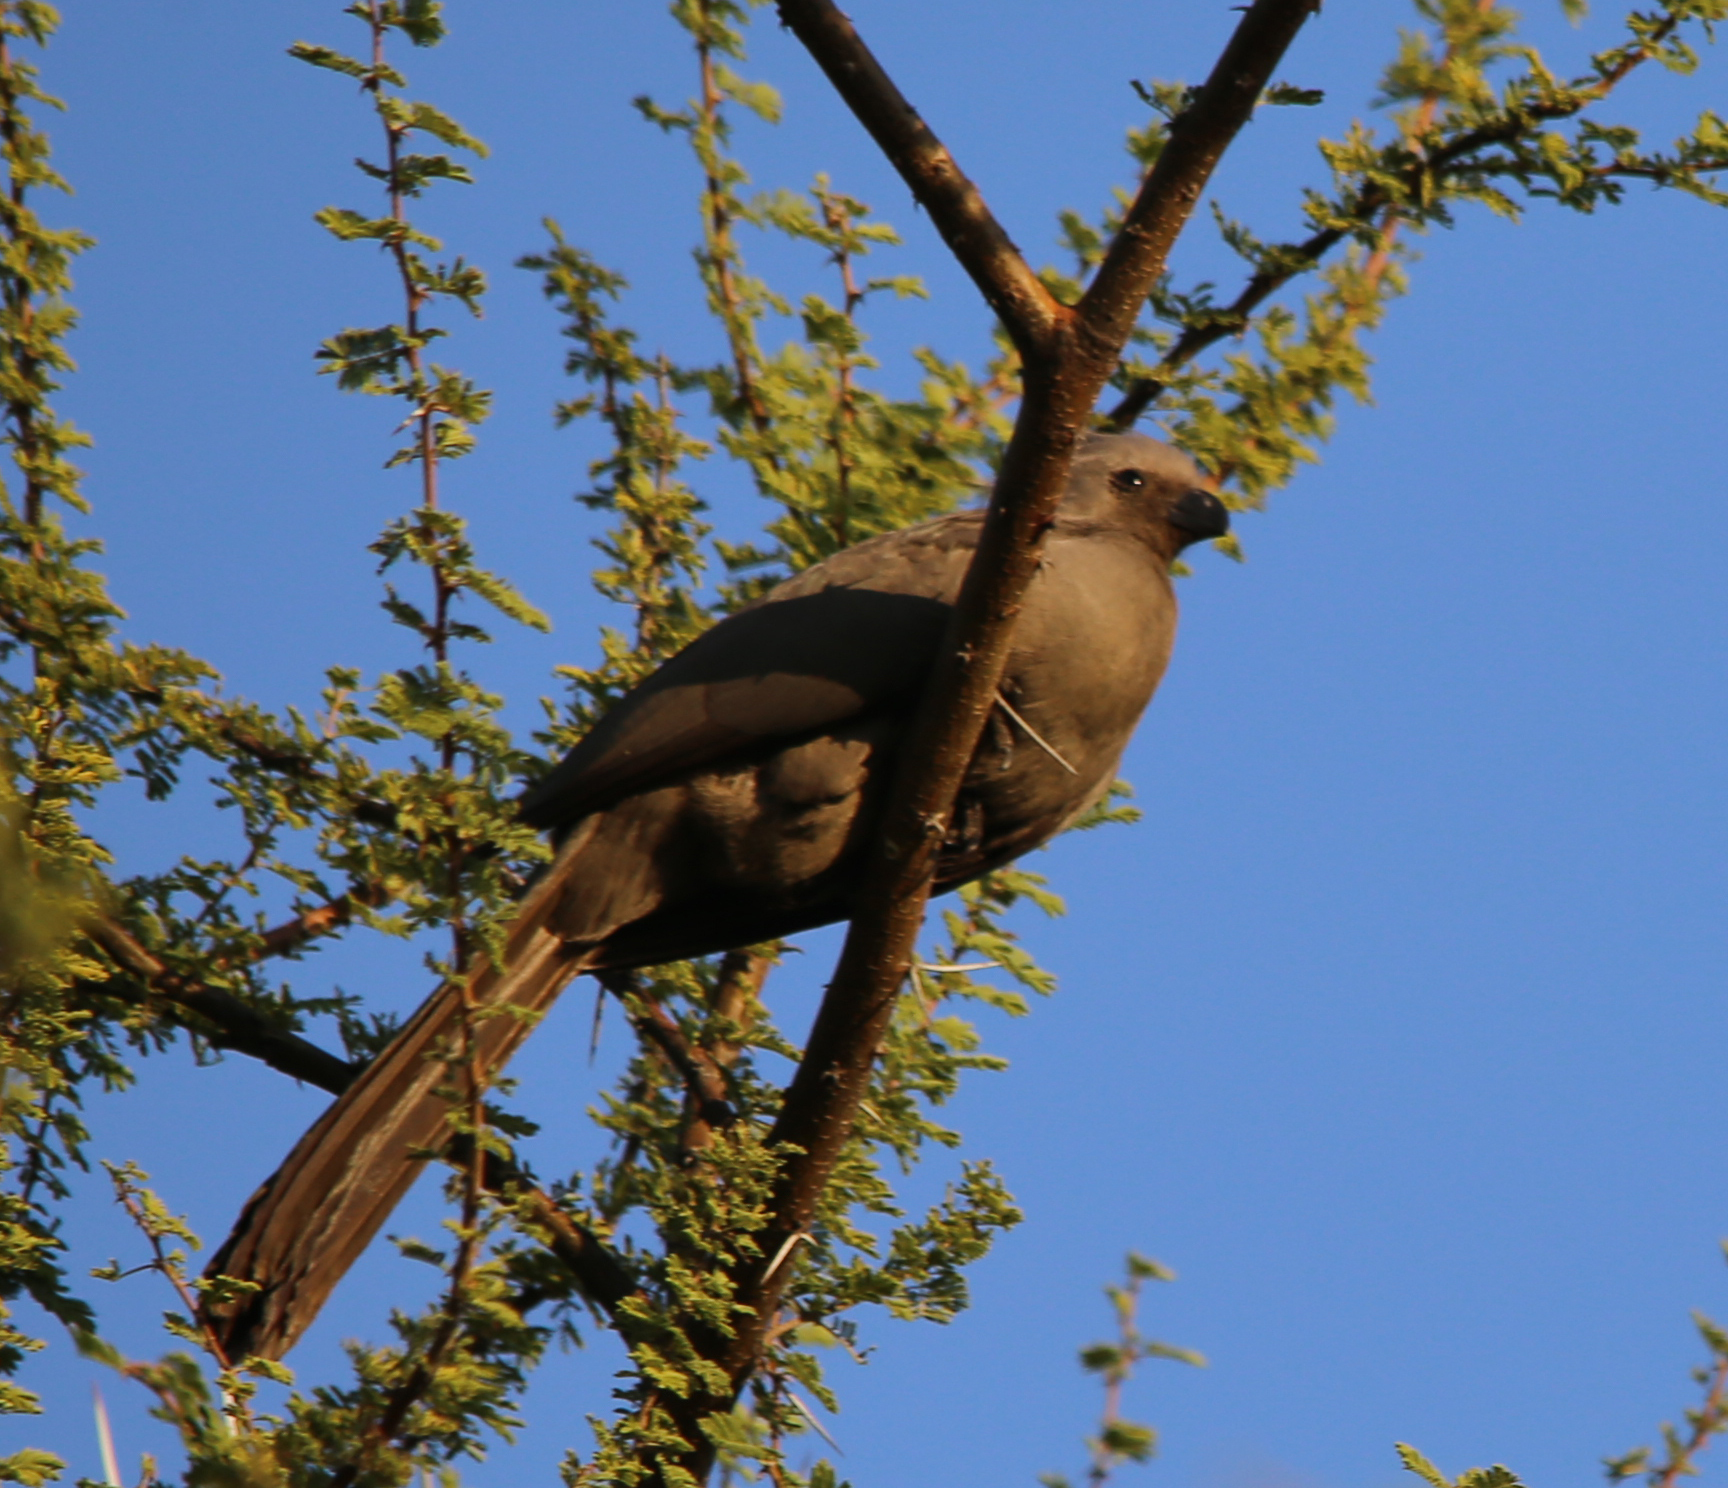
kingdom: Animalia
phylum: Chordata
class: Aves
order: Musophagiformes
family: Musophagidae
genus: Corythaixoides
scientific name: Corythaixoides concolor
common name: Grey go-away-bird
